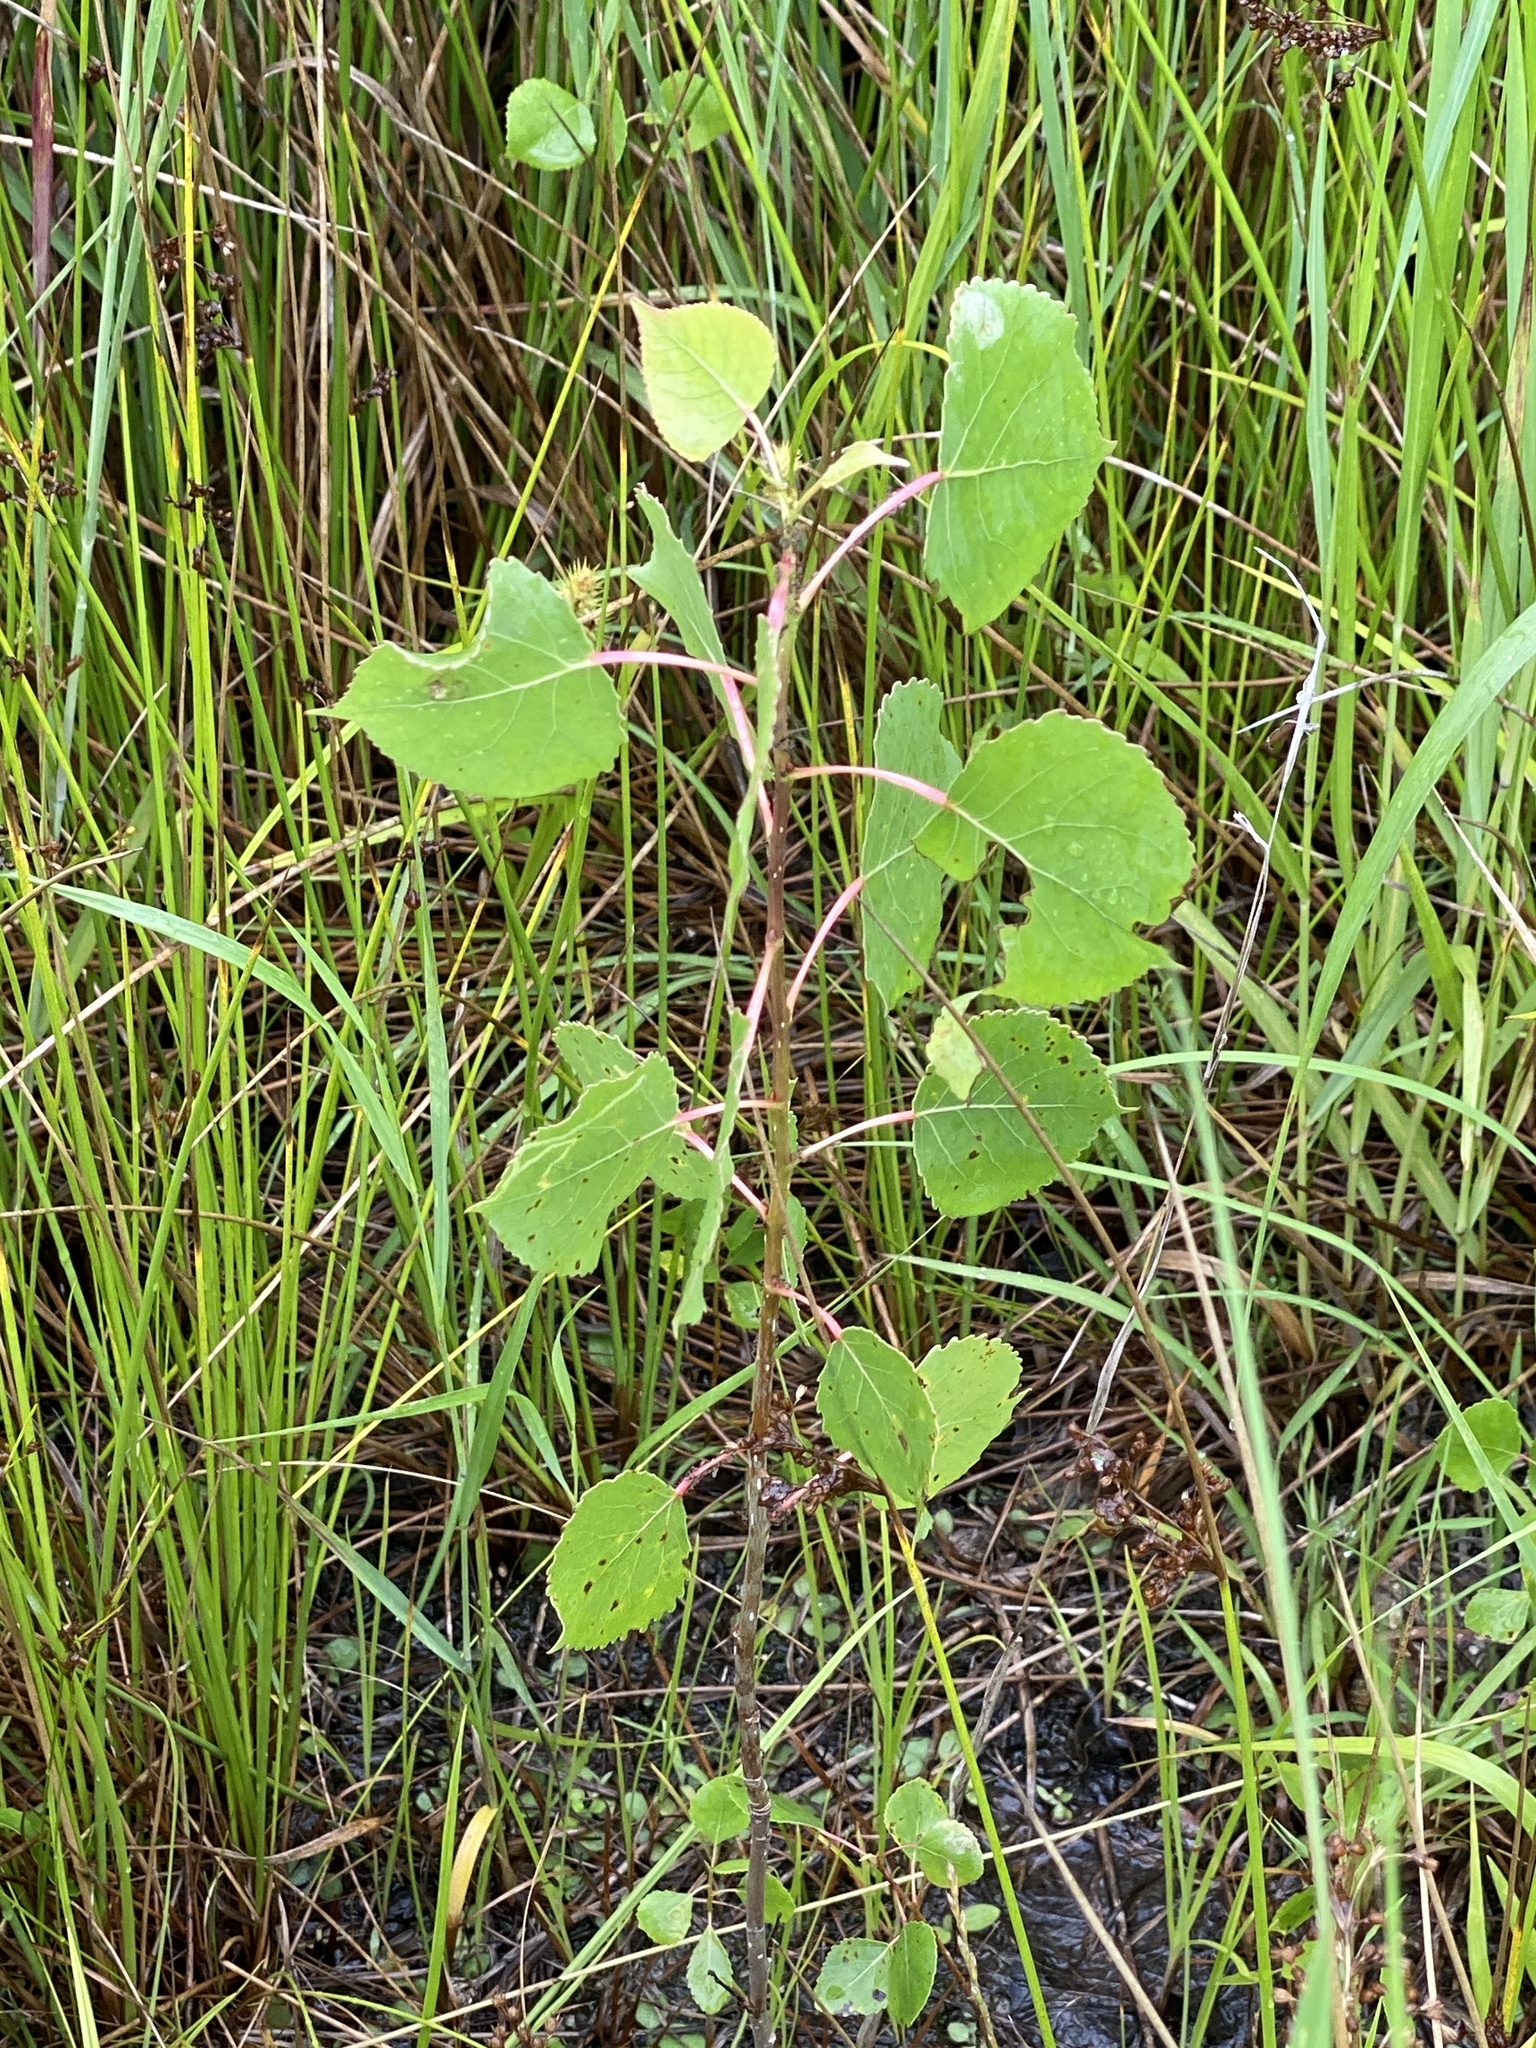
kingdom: Plantae
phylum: Tracheophyta
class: Magnoliopsida
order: Malpighiales
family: Salicaceae
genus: Populus
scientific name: Populus deltoides
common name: Eastern cottonwood
